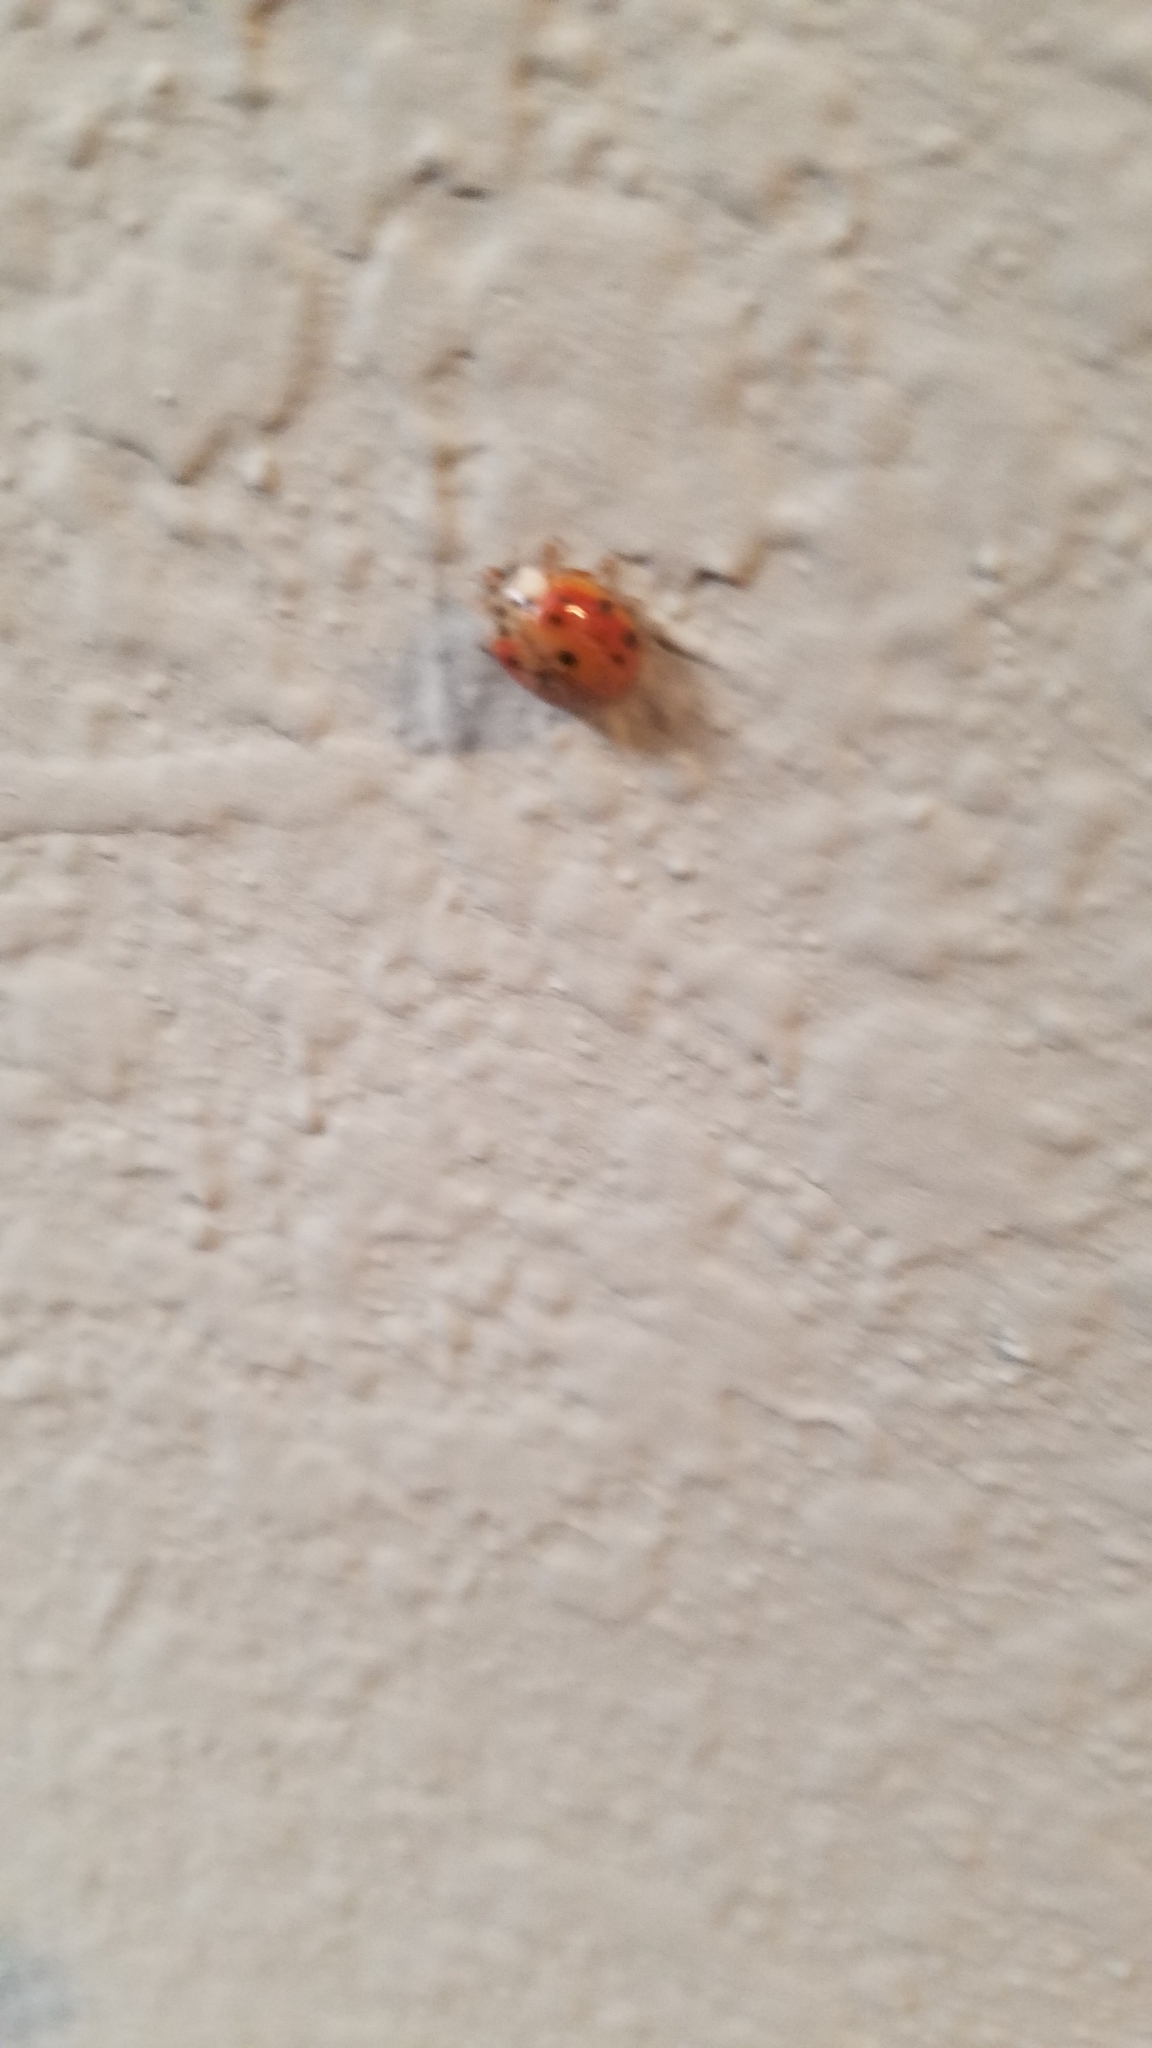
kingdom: Animalia
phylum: Arthropoda
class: Insecta
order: Coleoptera
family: Coccinellidae
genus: Harmonia
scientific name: Harmonia axyridis
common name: Harlequin ladybird
